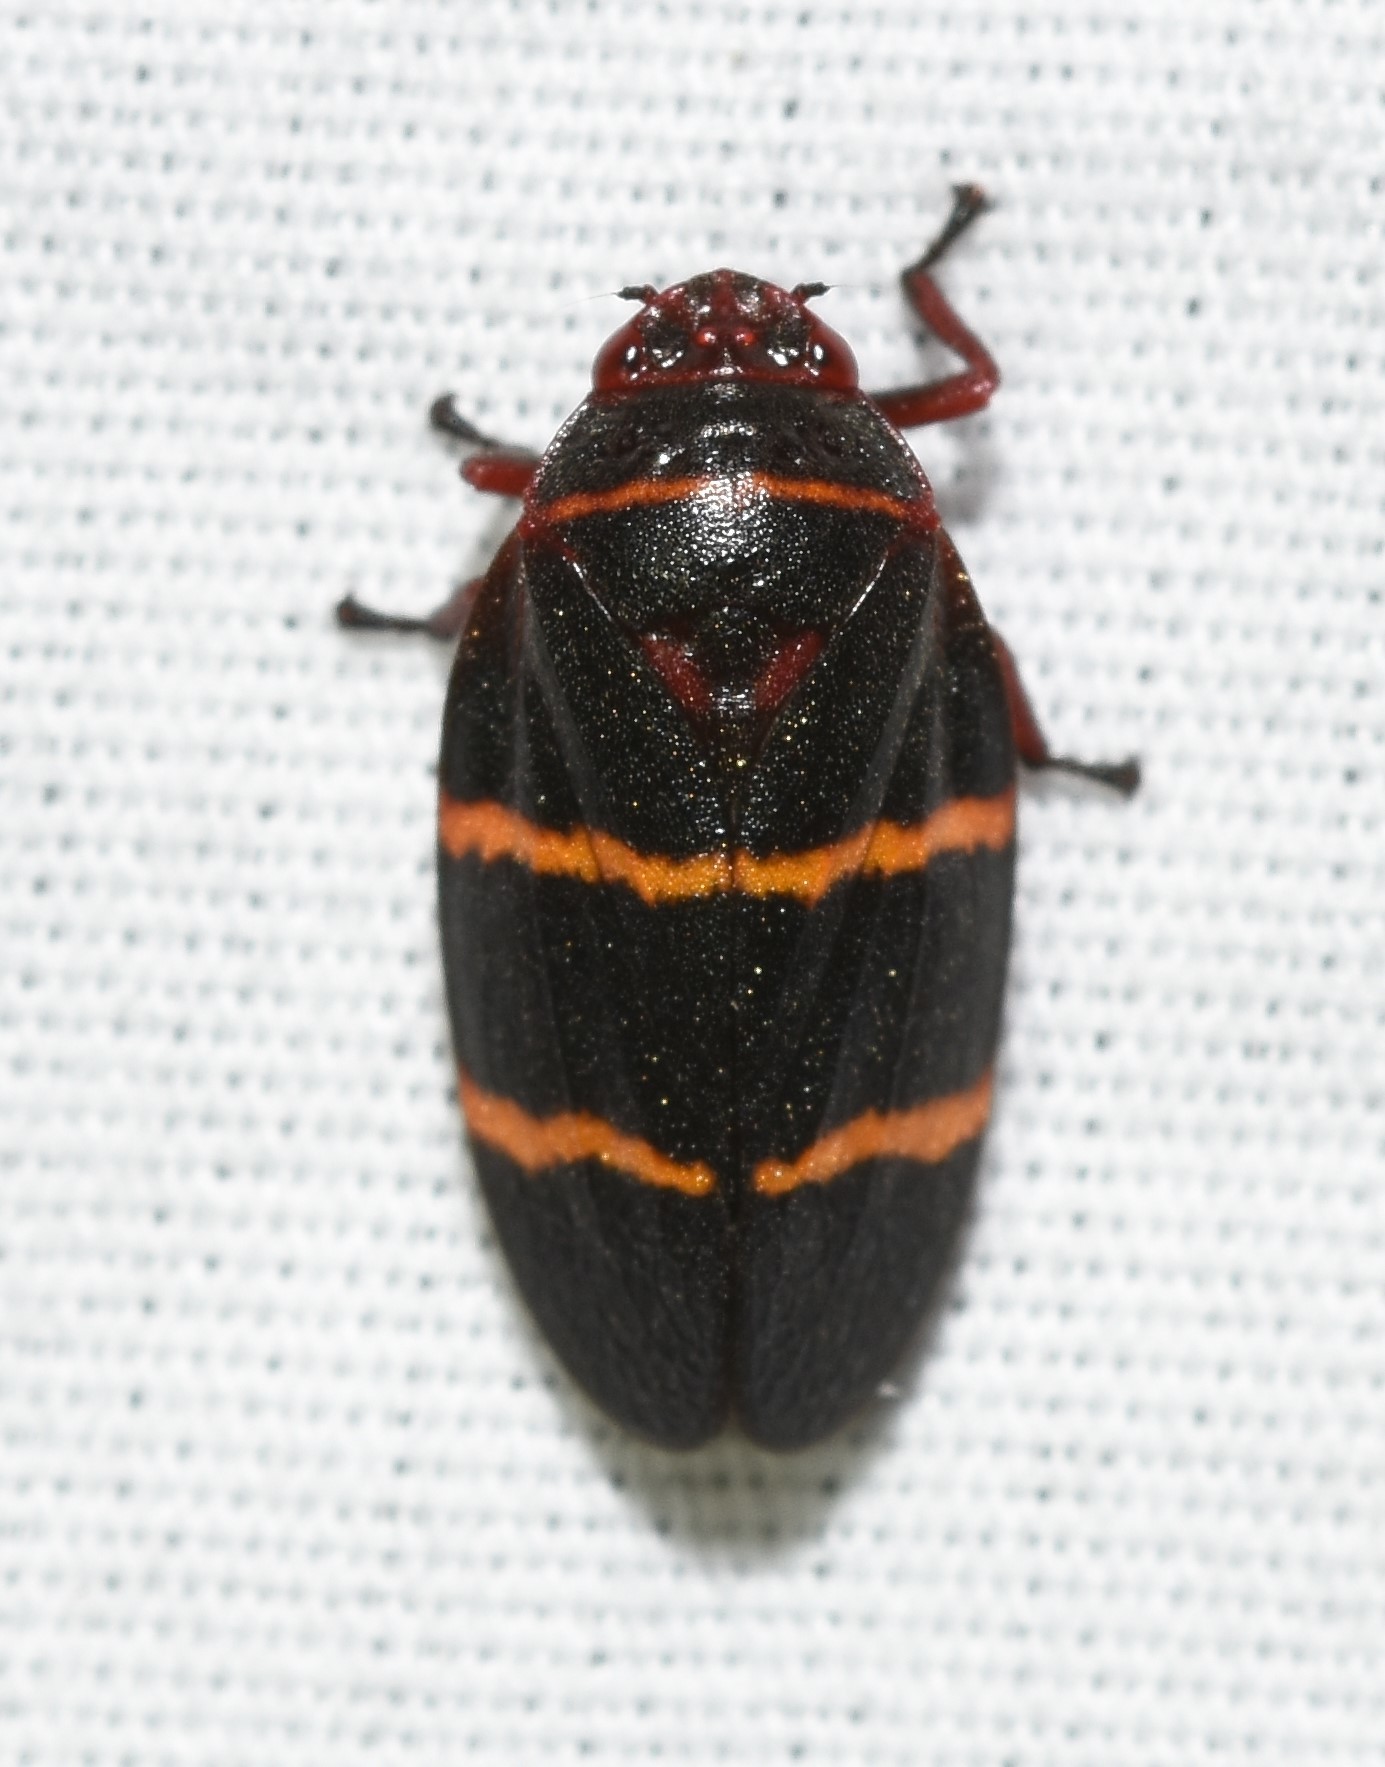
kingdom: Animalia
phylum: Arthropoda
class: Insecta
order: Hemiptera
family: Cercopidae
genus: Prosapia
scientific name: Prosapia bicincta
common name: Twolined spittlebug
